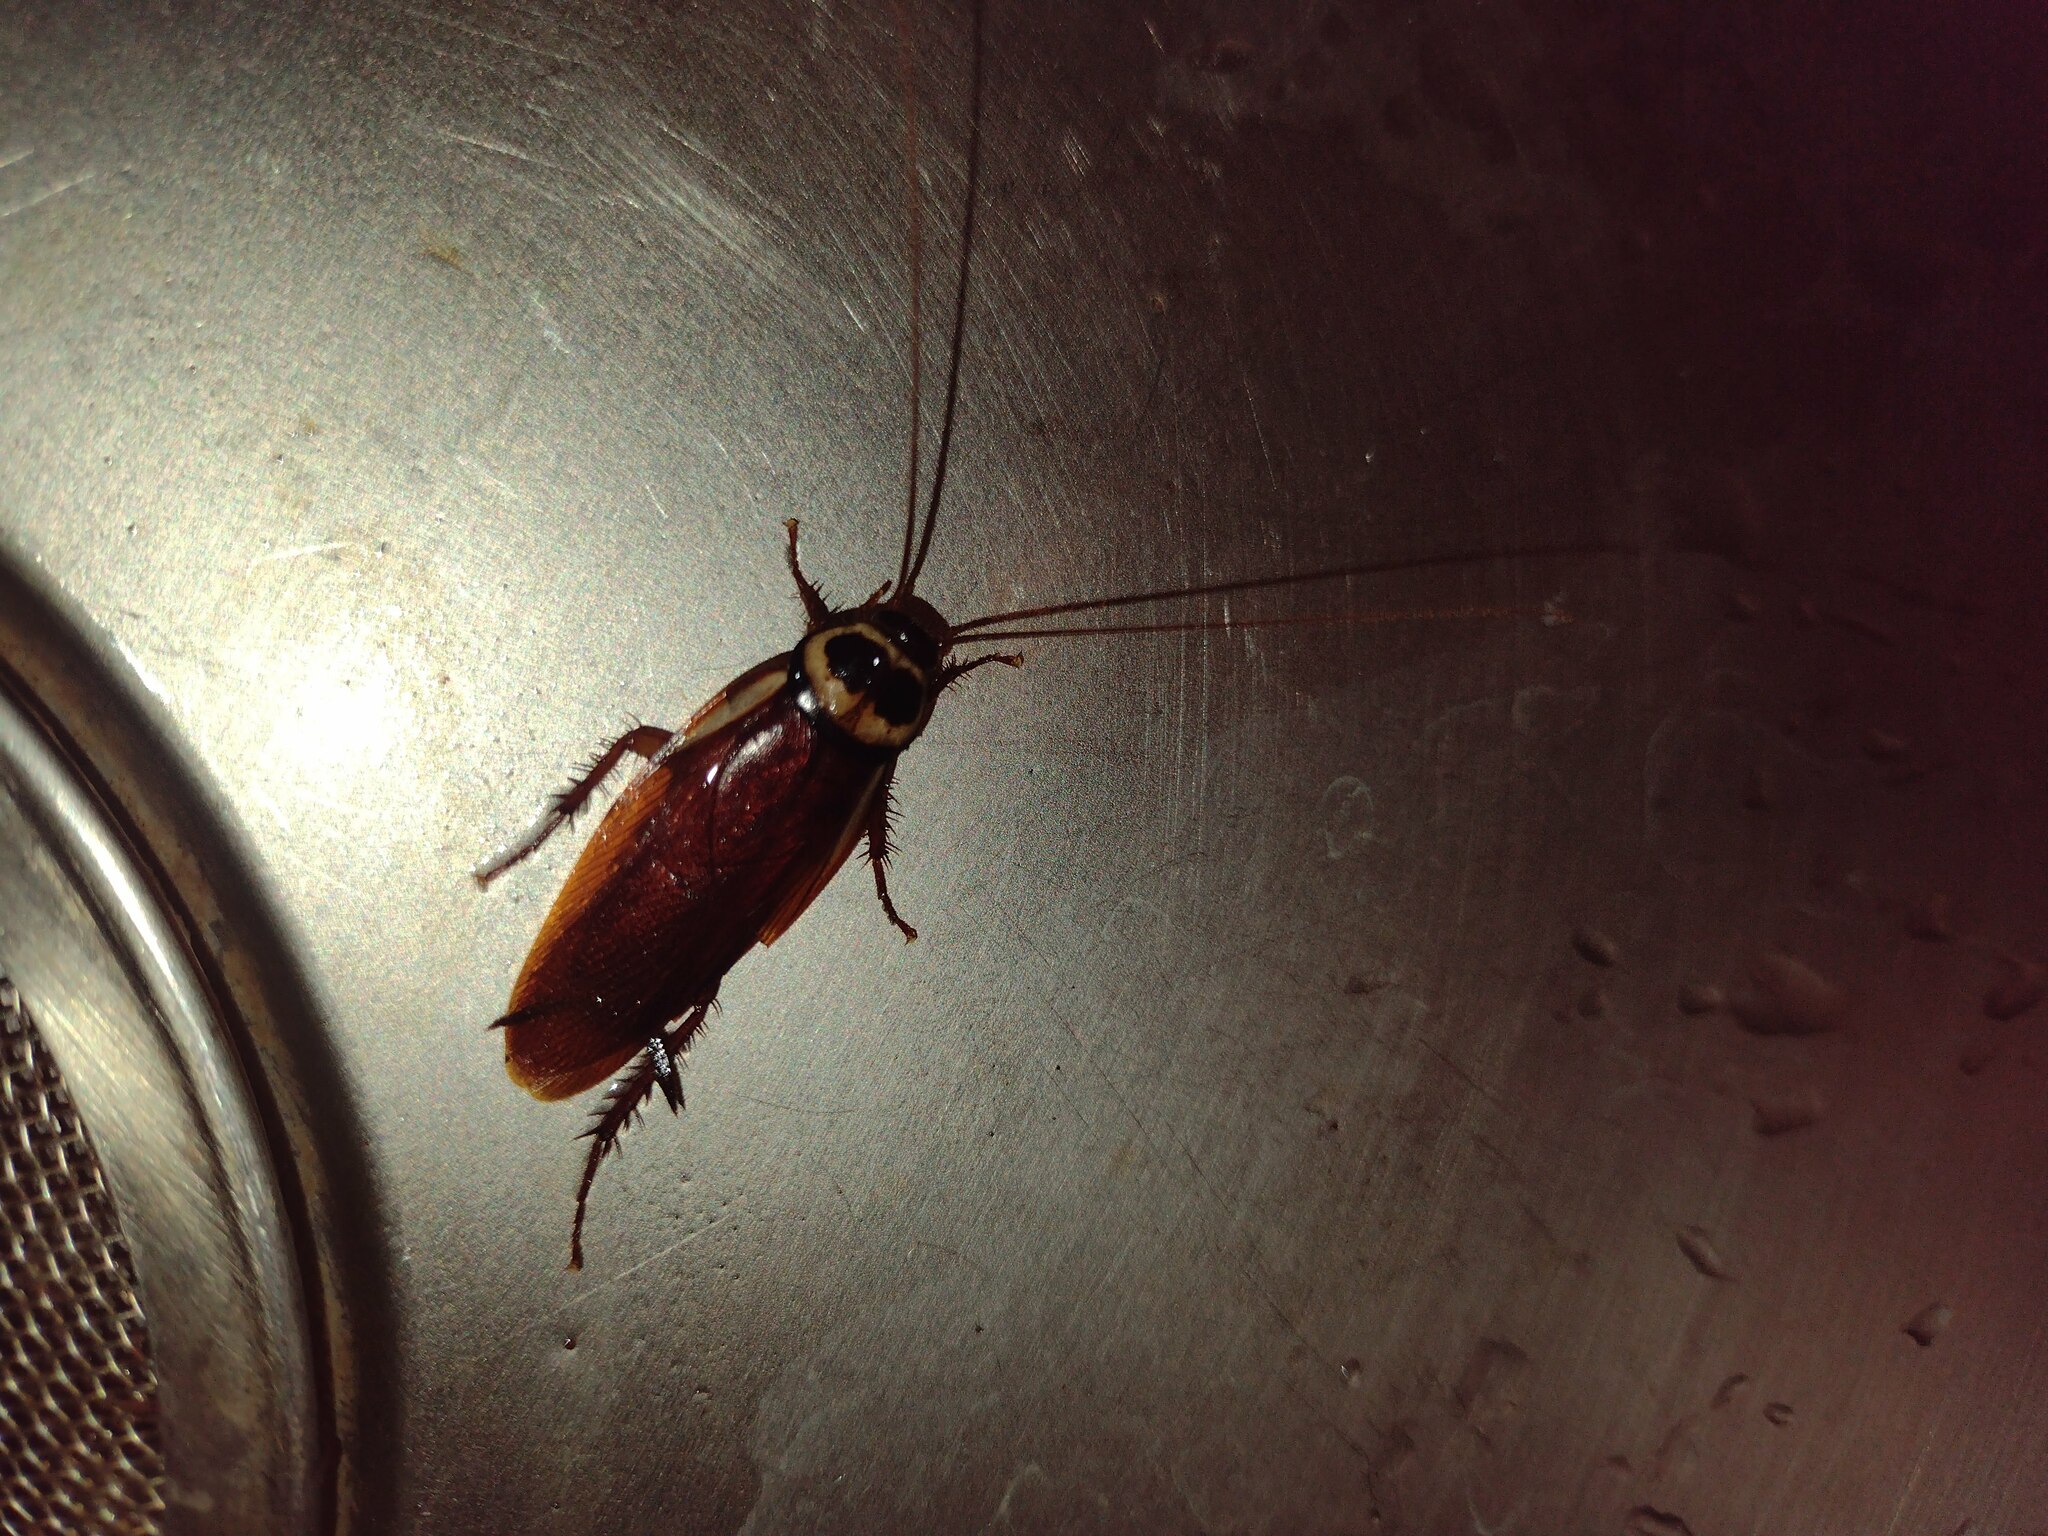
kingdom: Animalia
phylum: Arthropoda
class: Insecta
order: Blattodea
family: Blattidae
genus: Periplaneta
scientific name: Periplaneta australasiae
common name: Australian cockroach
